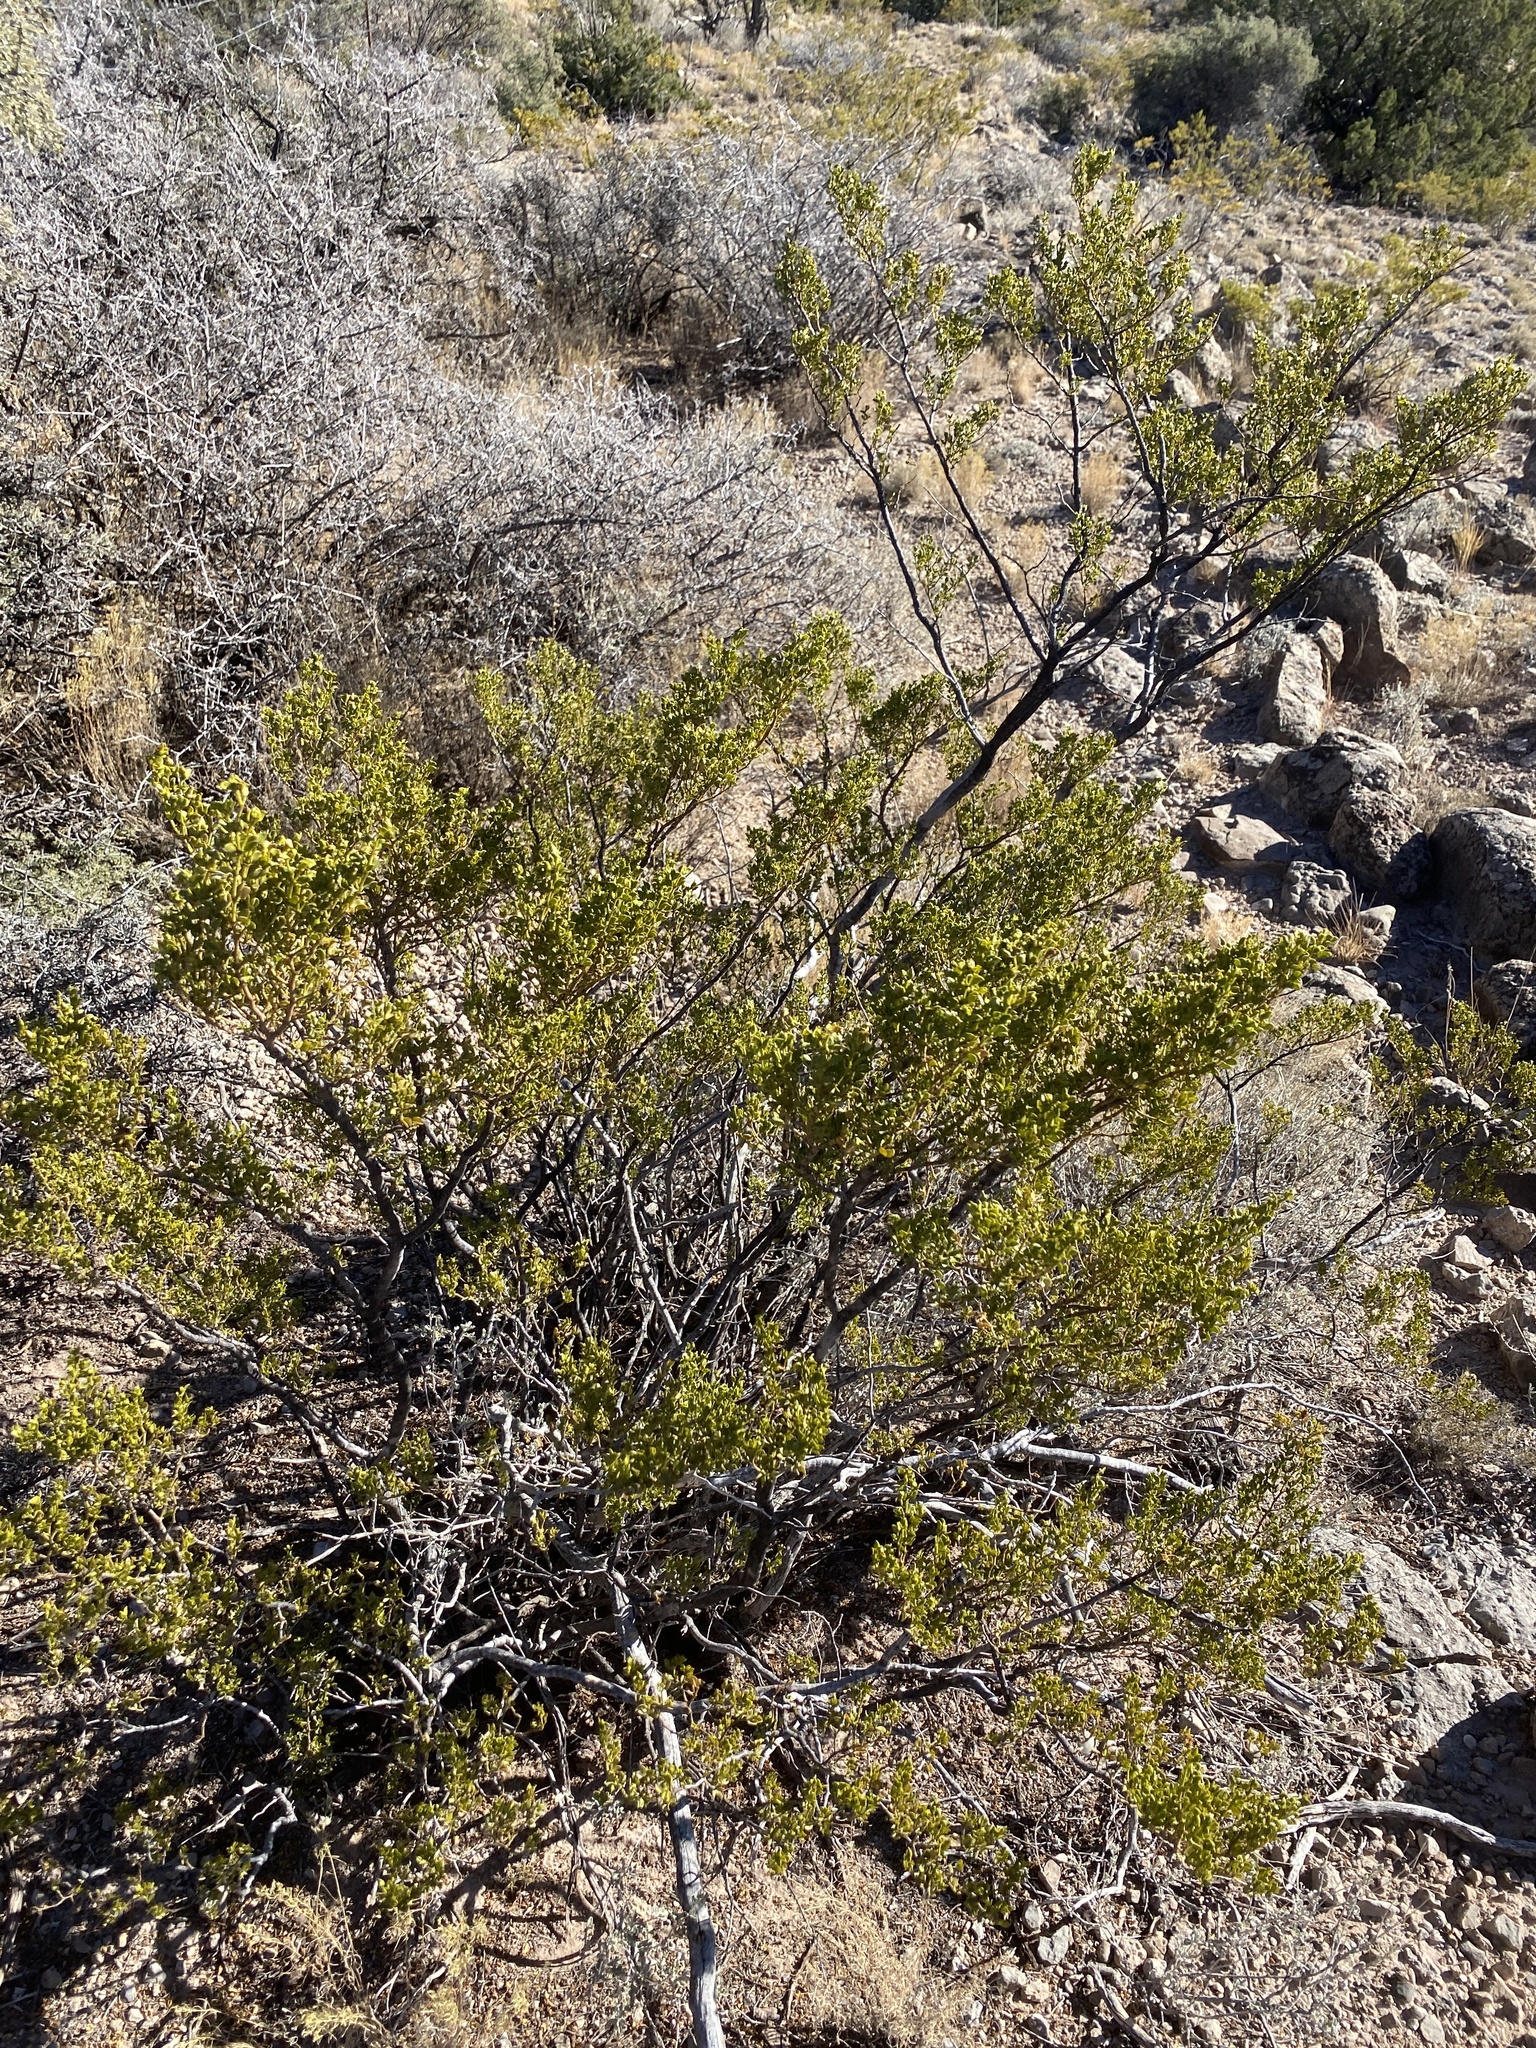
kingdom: Plantae
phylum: Tracheophyta
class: Magnoliopsida
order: Zygophyllales
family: Zygophyllaceae
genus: Larrea
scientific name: Larrea tridentata
